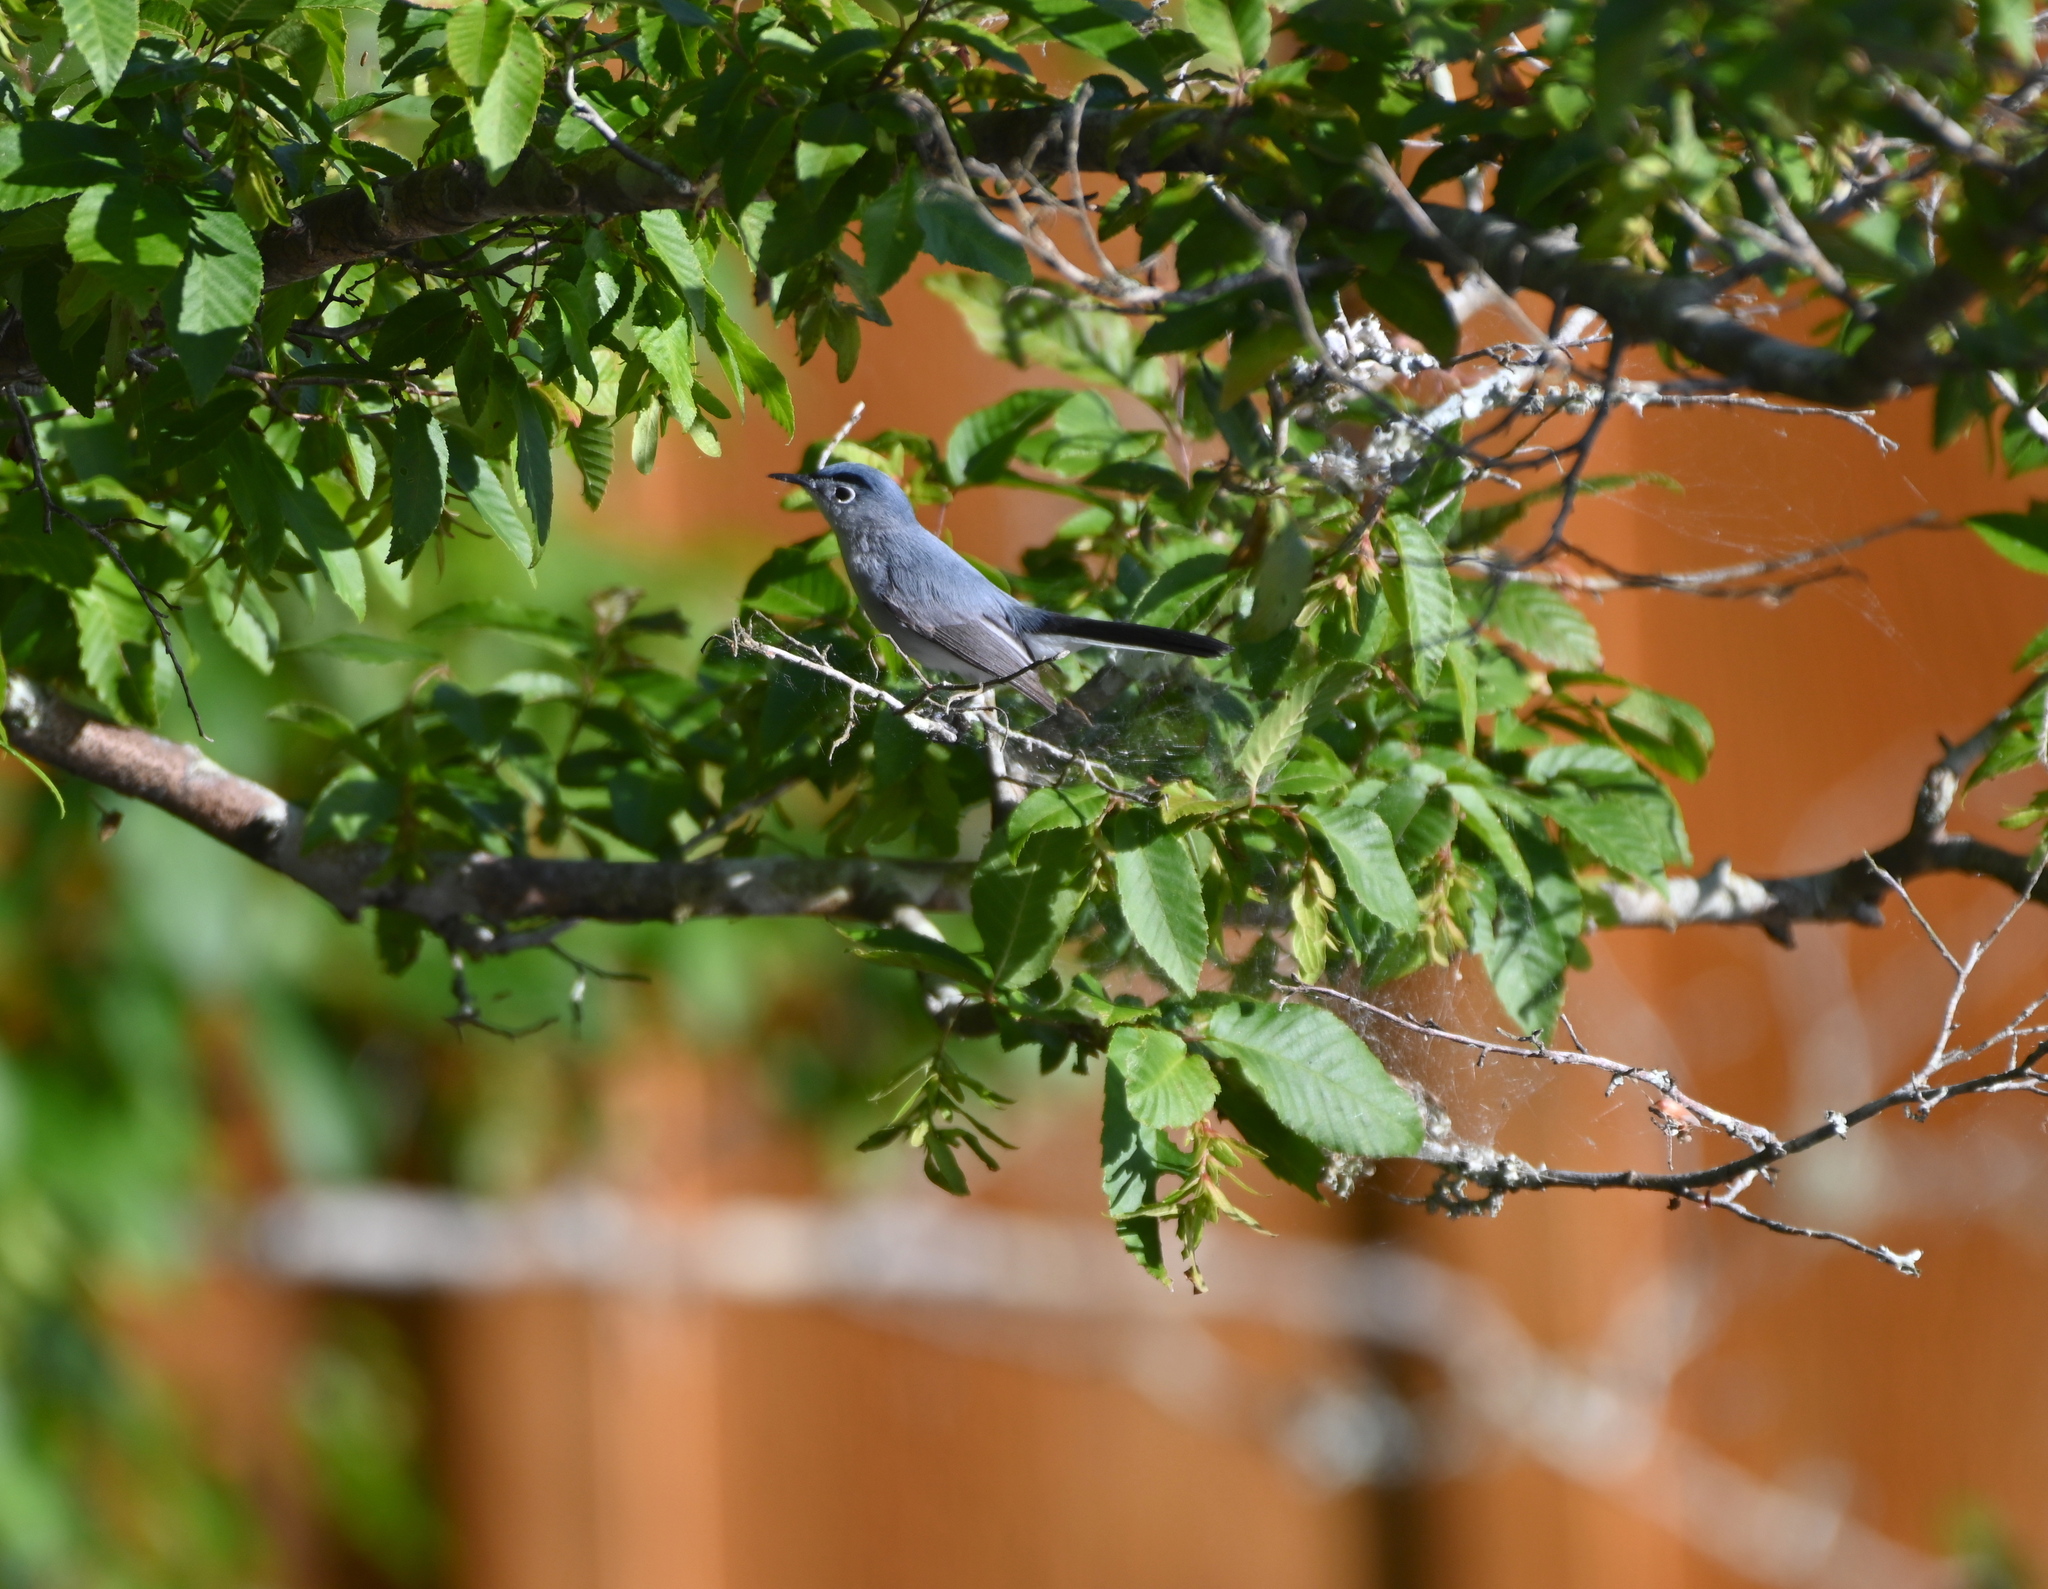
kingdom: Animalia
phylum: Chordata
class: Aves
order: Passeriformes
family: Polioptilidae
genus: Polioptila
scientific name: Polioptila caerulea
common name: Blue-gray gnatcatcher
